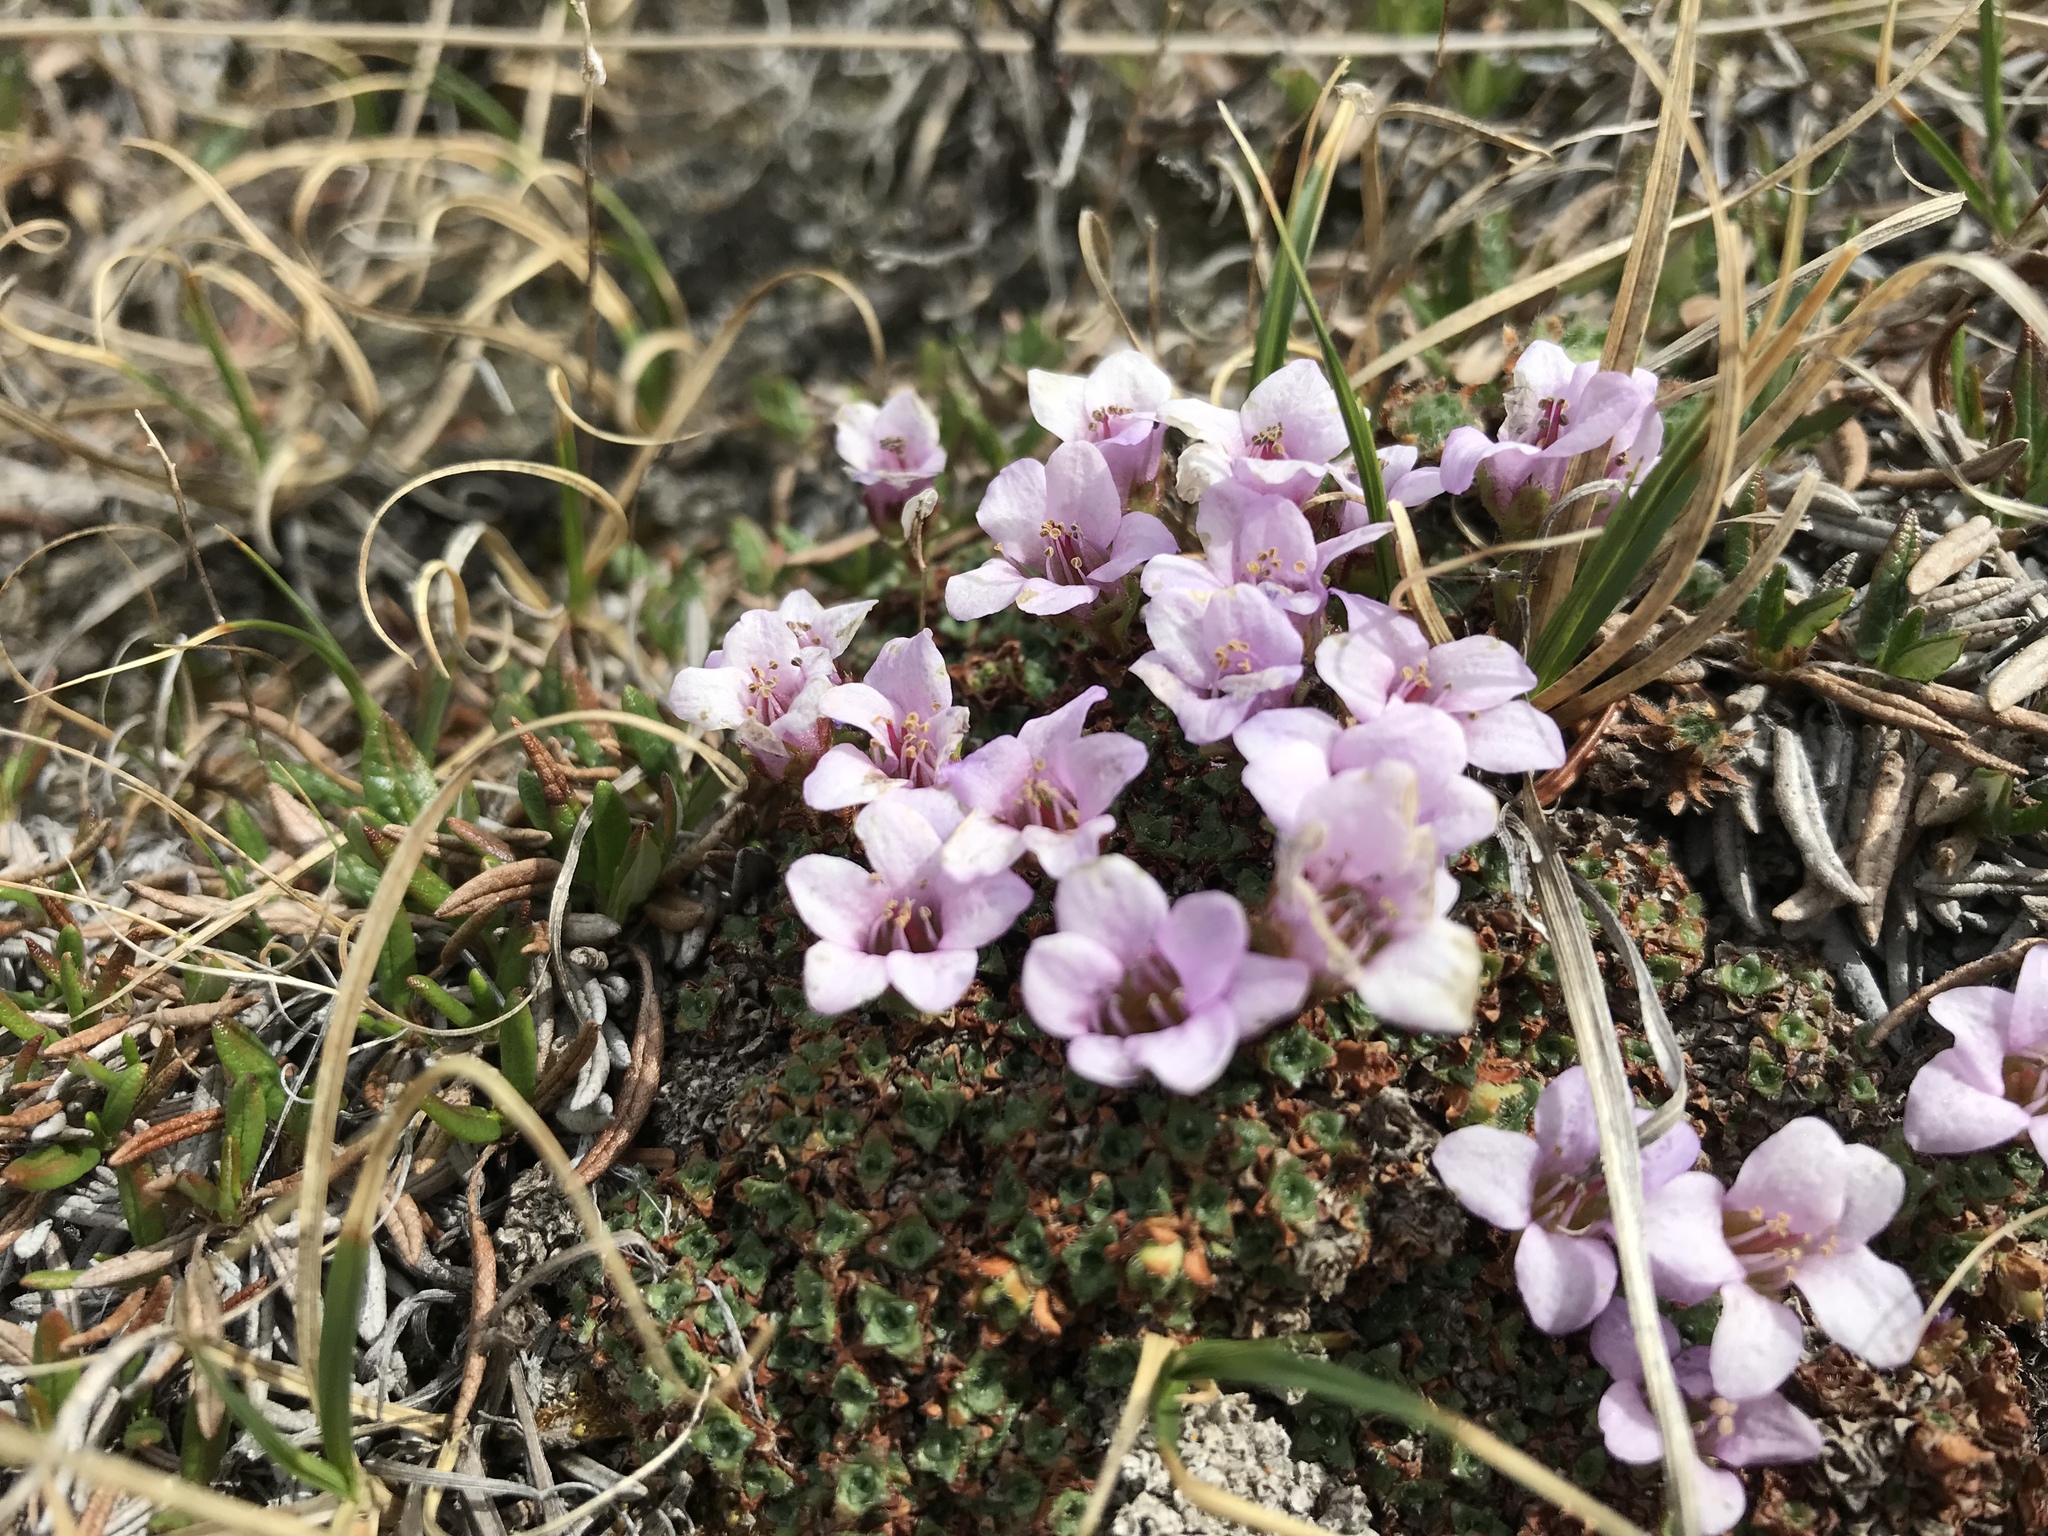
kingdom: Plantae
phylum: Tracheophyta
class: Magnoliopsida
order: Saxifragales
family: Saxifragaceae
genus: Saxifraga
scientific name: Saxifraga oppositifolia
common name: Purple saxifrage
